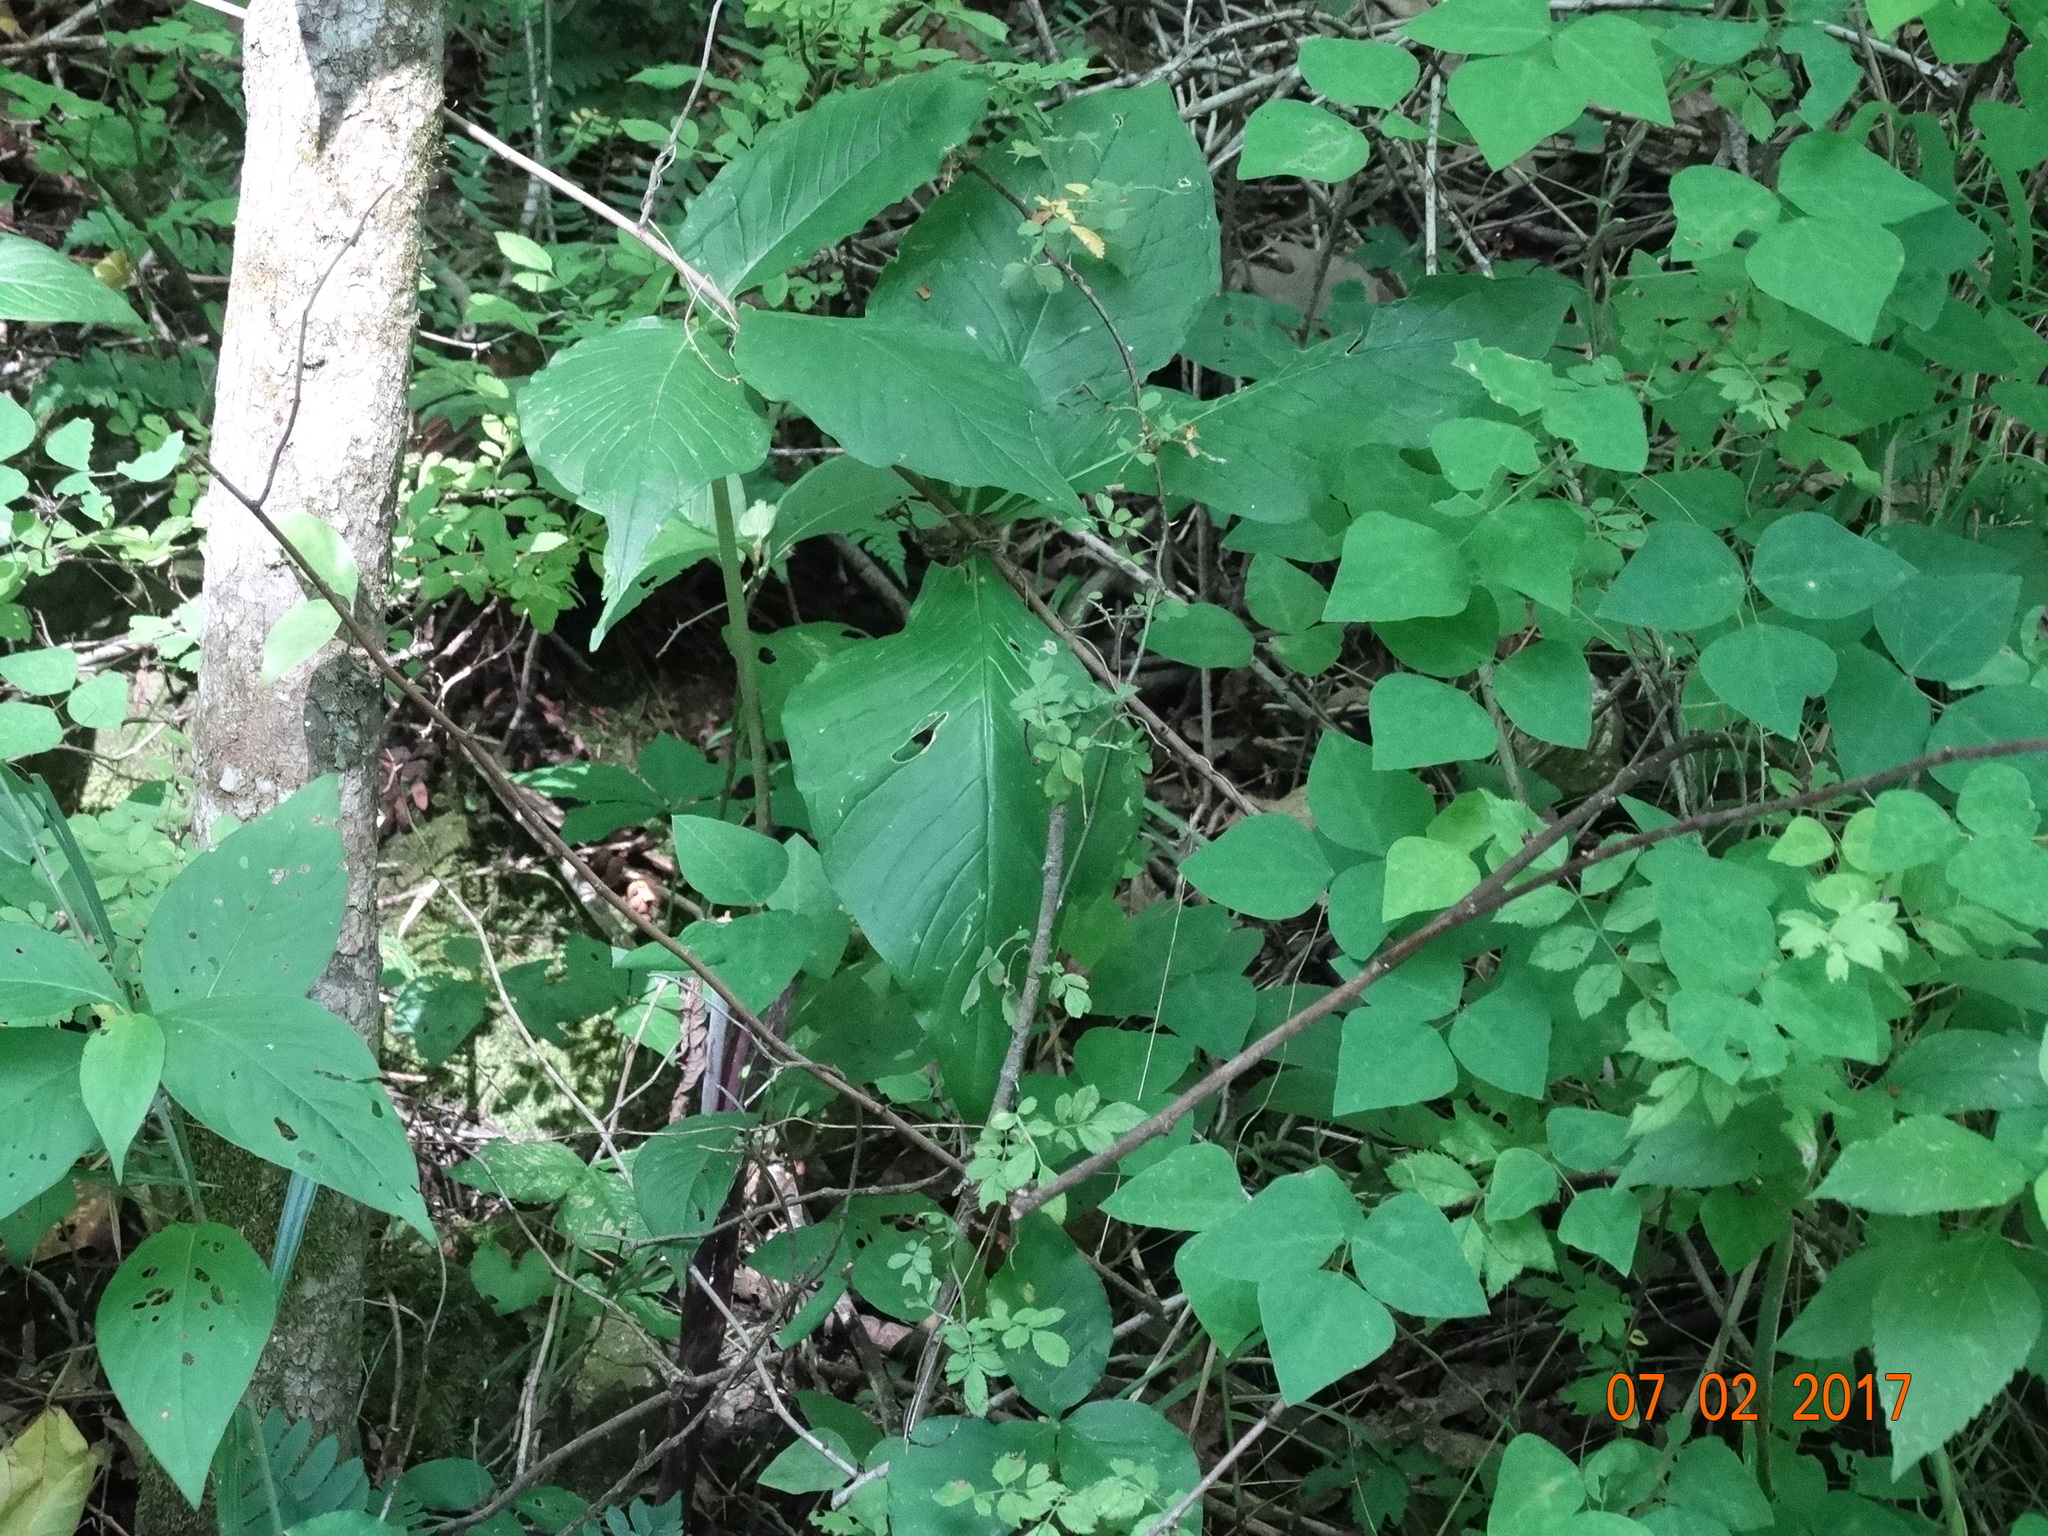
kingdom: Plantae
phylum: Tracheophyta
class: Liliopsida
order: Alismatales
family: Araceae
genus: Arisaema
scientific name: Arisaema triphyllum
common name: Jack-in-the-pulpit
